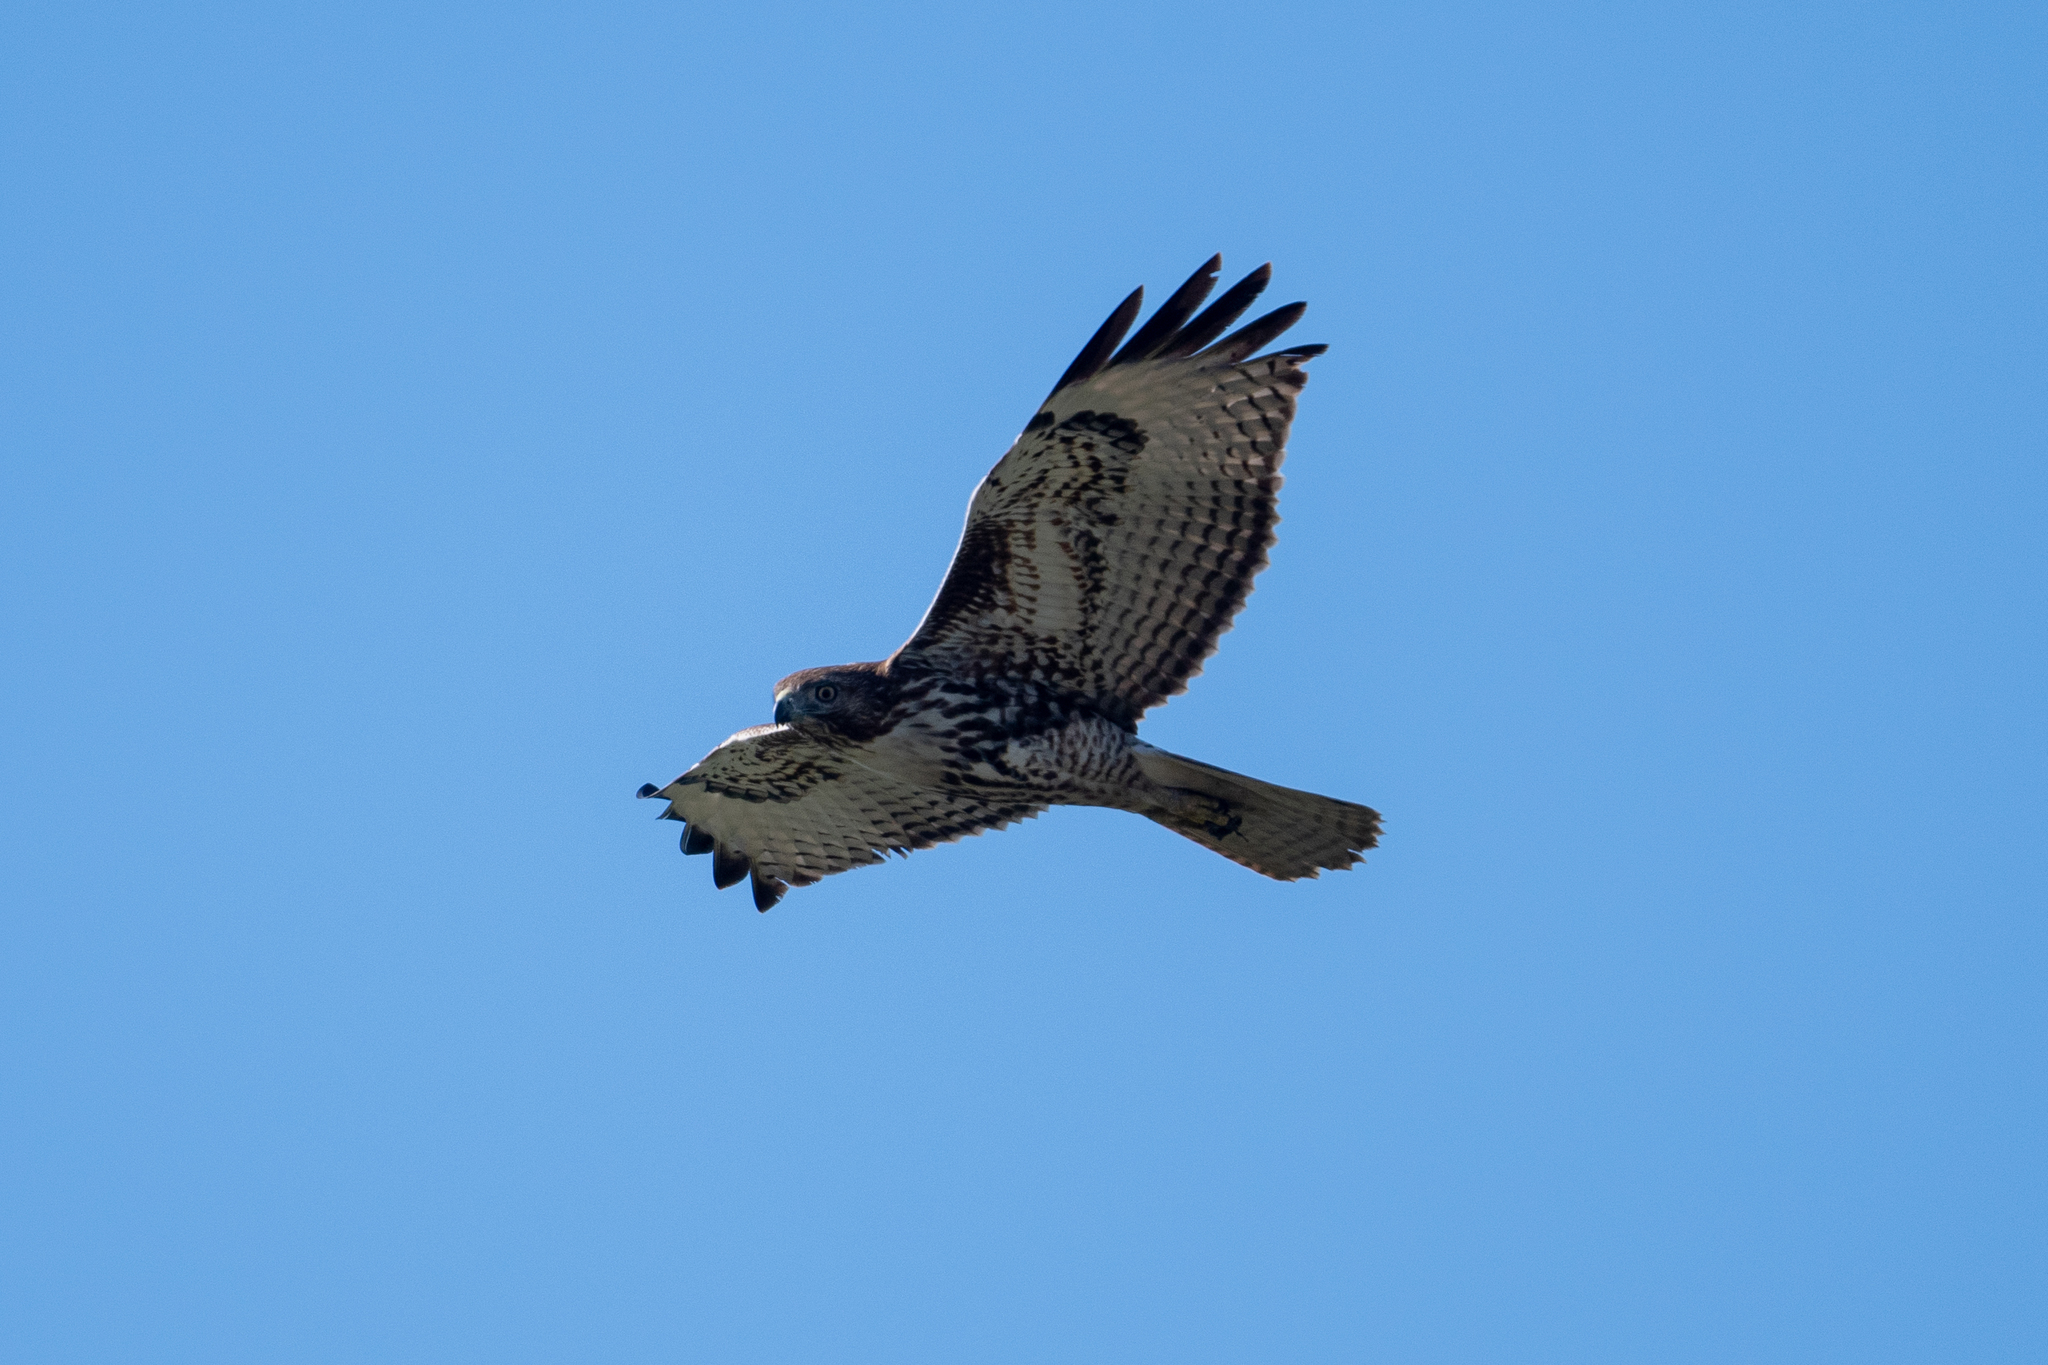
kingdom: Animalia
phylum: Chordata
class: Aves
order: Accipitriformes
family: Accipitridae
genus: Buteo
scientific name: Buteo jamaicensis
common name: Red-tailed hawk
